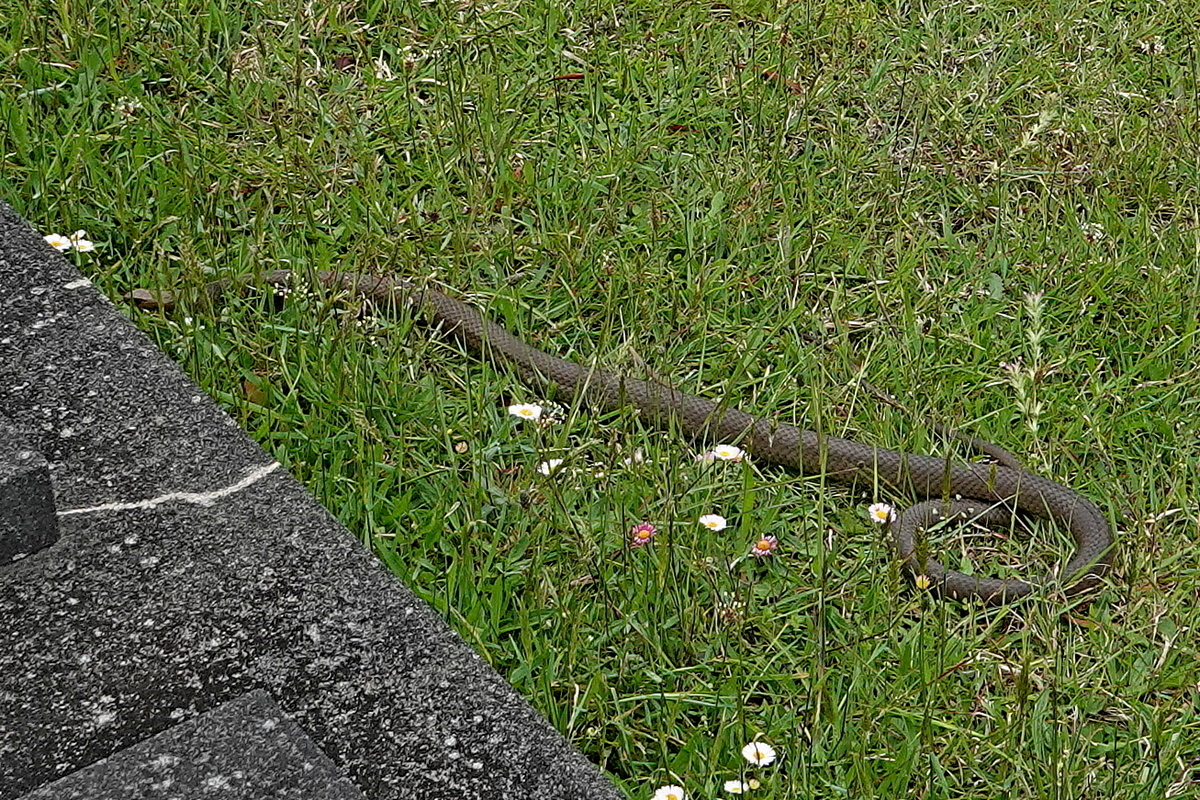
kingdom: Animalia
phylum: Chordata
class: Squamata
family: Elapidae
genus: Pseudonaja
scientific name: Pseudonaja textilis
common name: Eastern brown snake
